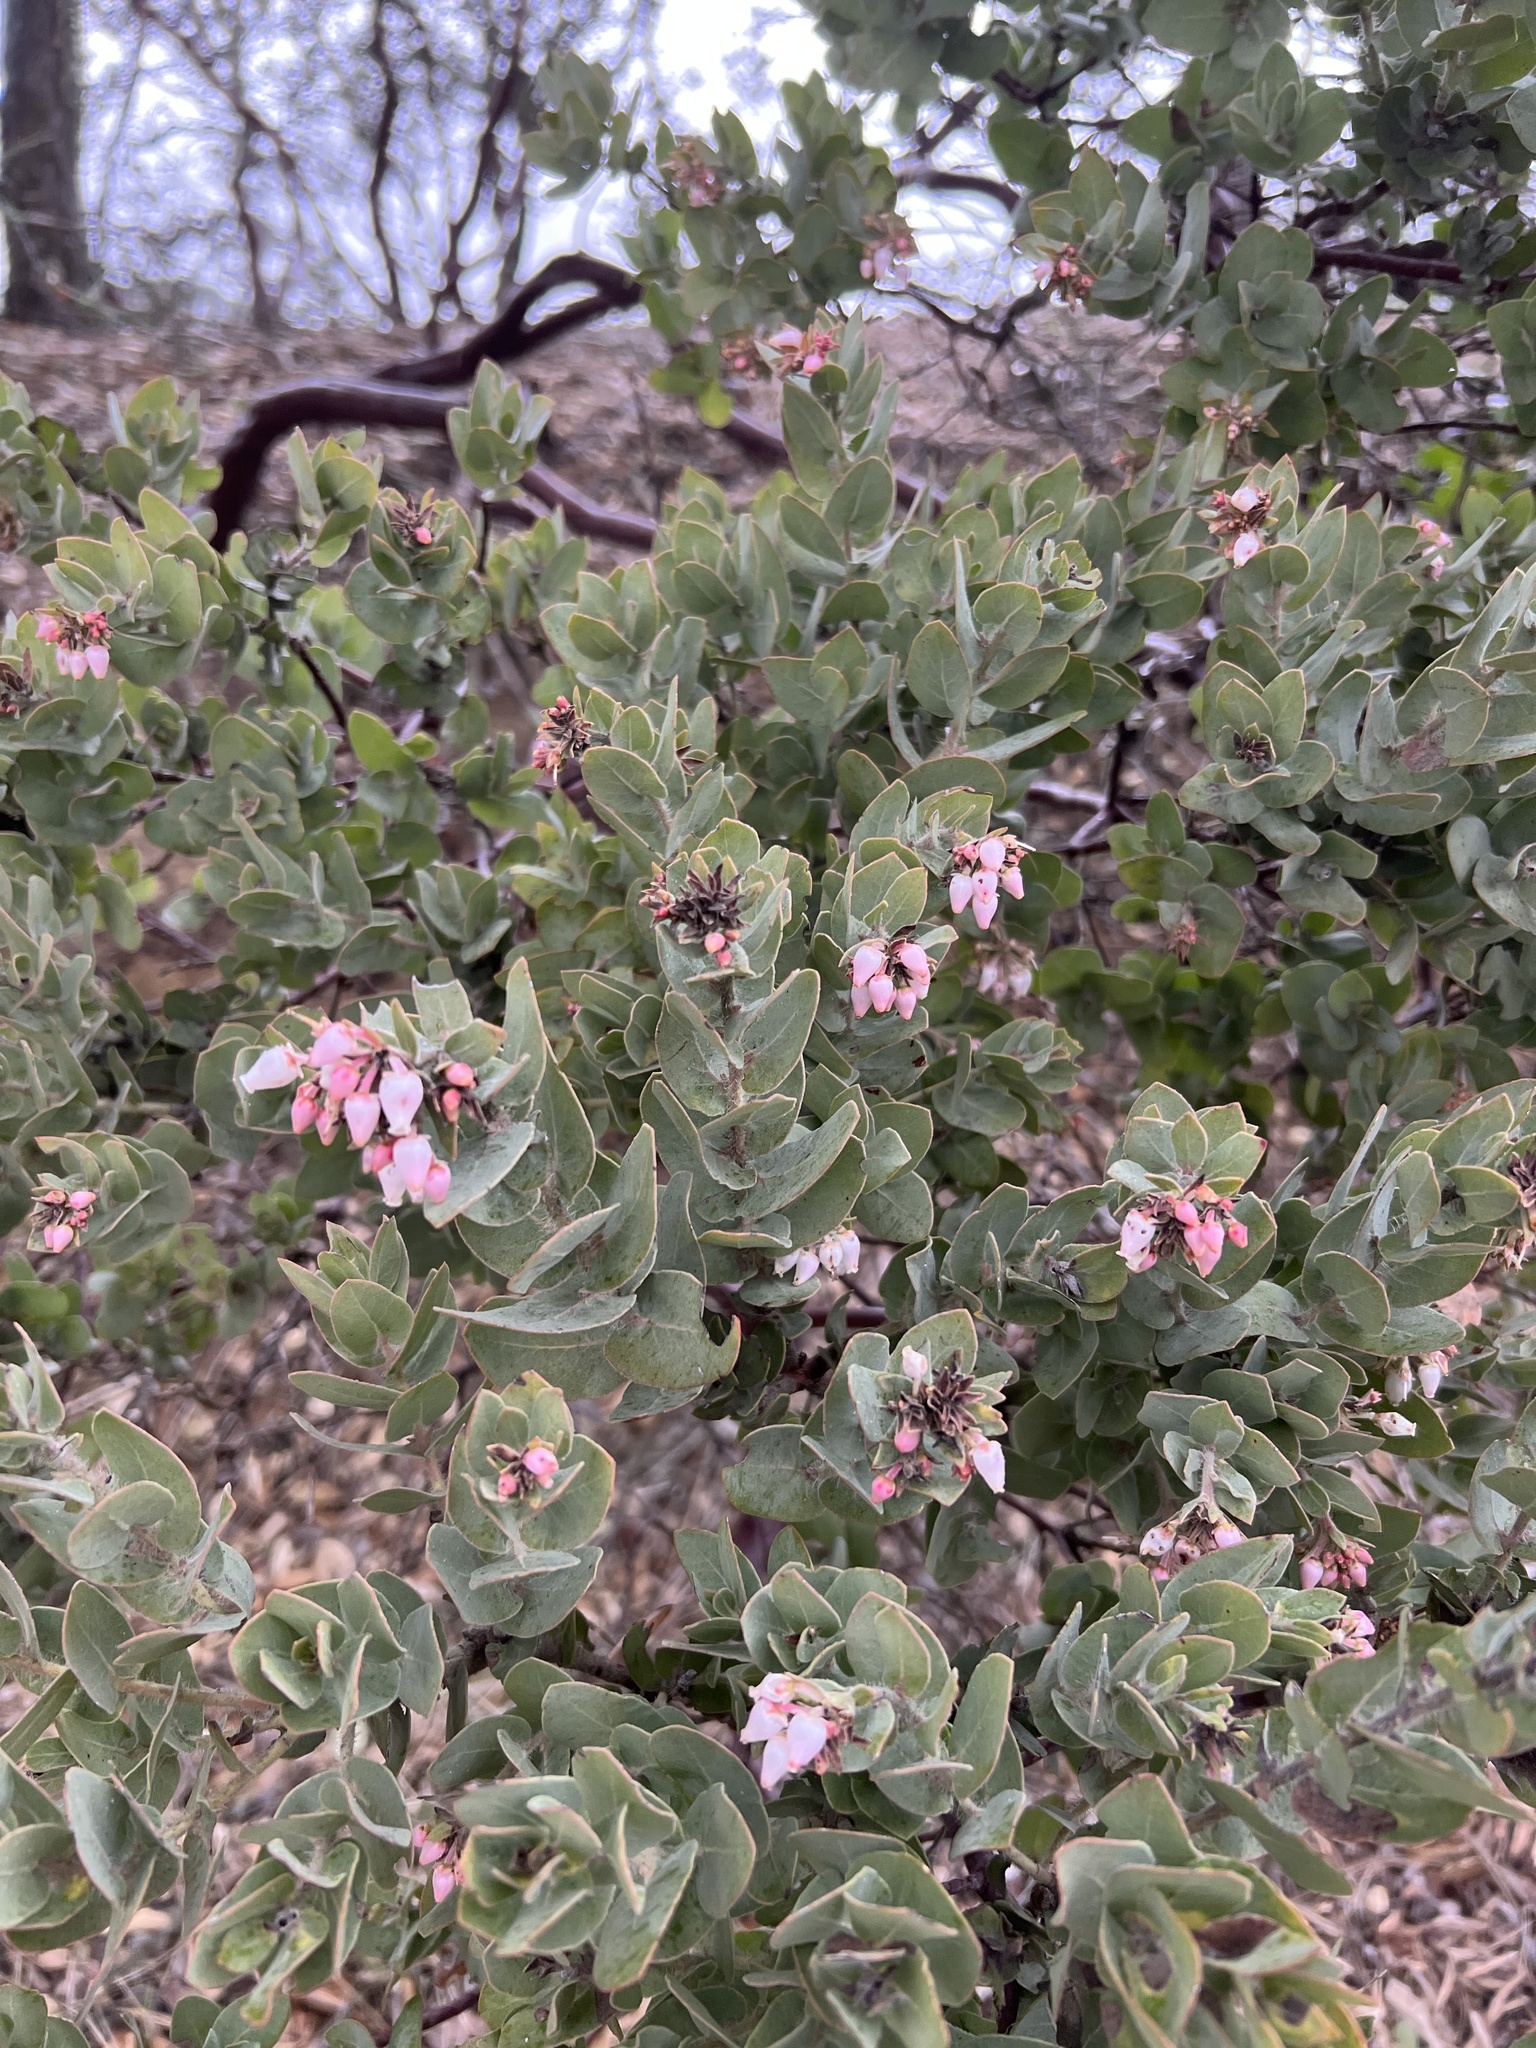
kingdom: Plantae
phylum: Tracheophyta
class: Magnoliopsida
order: Ericales
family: Ericaceae
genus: Arctostaphylos
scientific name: Arctostaphylos auriculata
